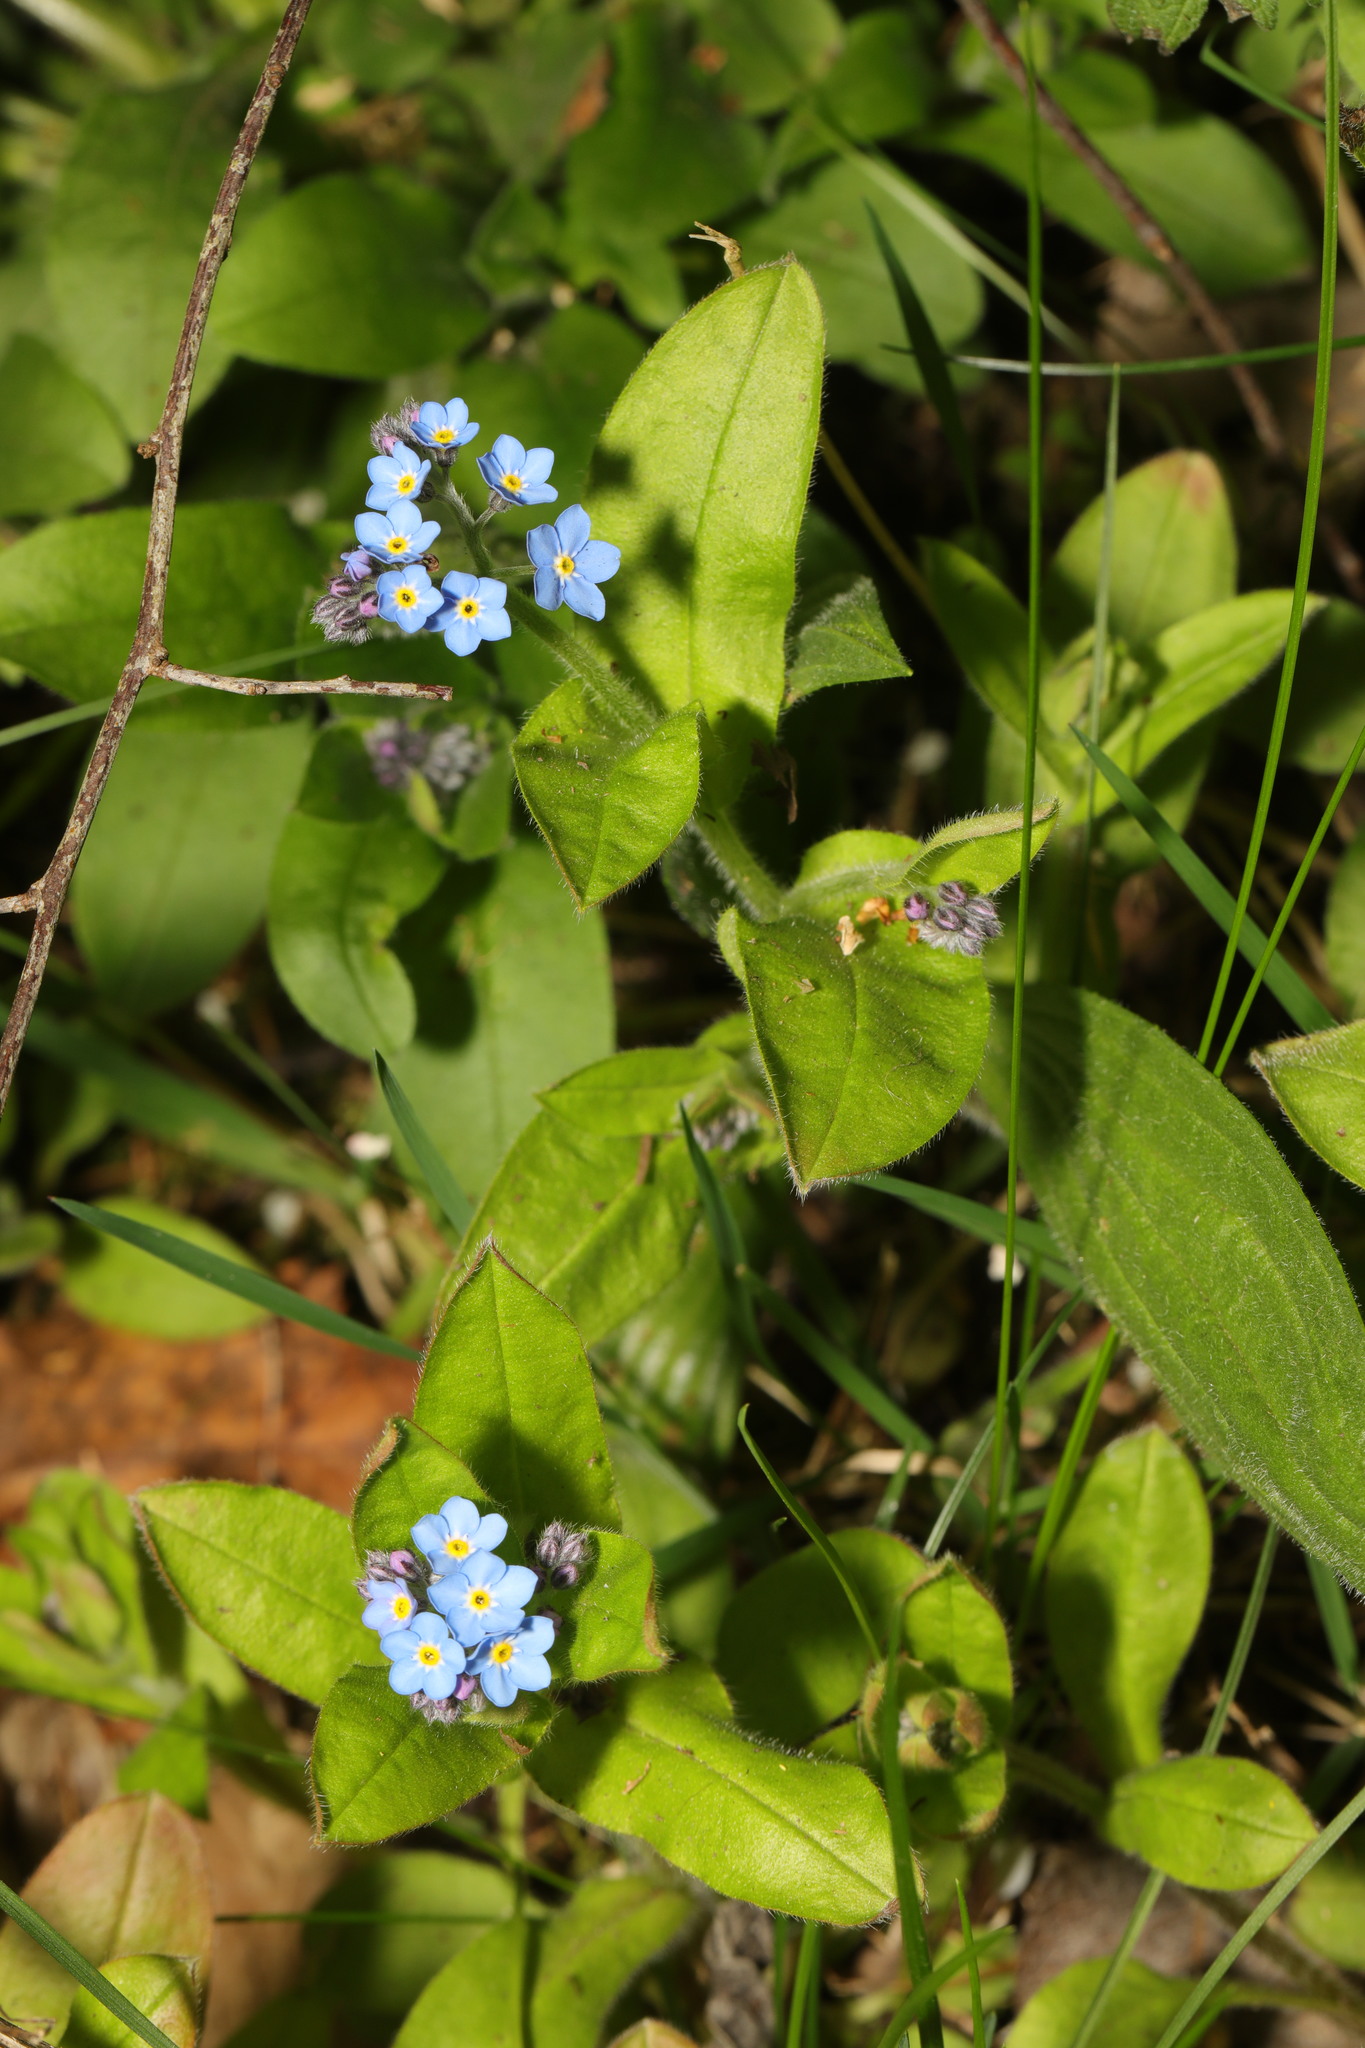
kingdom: Plantae
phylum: Tracheophyta
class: Magnoliopsida
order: Boraginales
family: Boraginaceae
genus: Myosotis
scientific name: Myosotis sylvatica
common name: Wood forget-me-not
